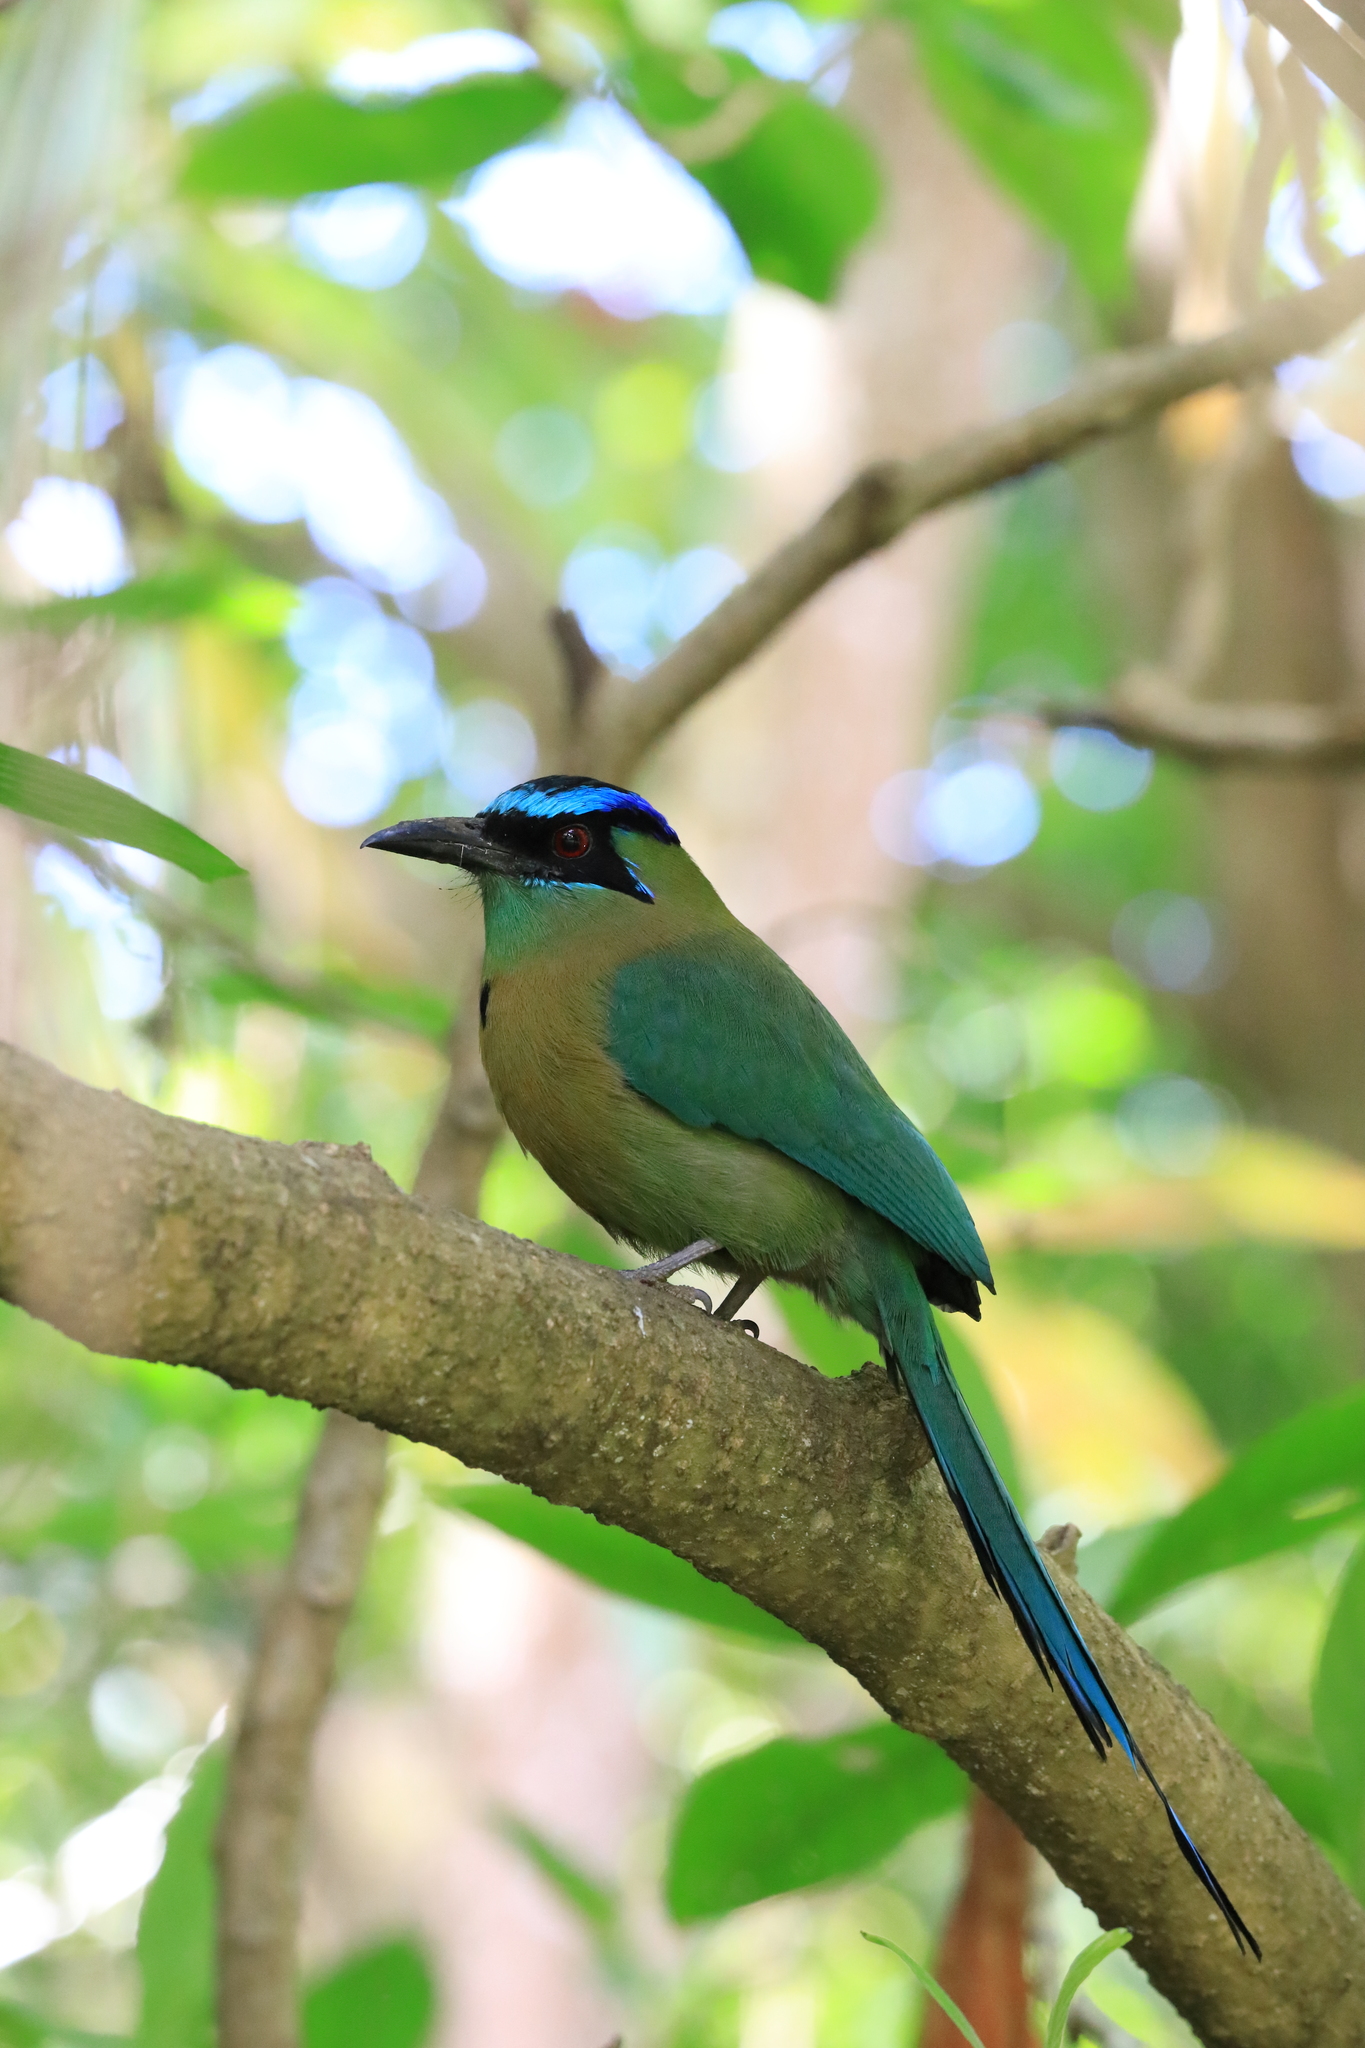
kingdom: Animalia
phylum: Chordata
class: Aves
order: Coraciiformes
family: Momotidae
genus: Momotus
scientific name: Momotus lessonii
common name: Lesson's motmot
